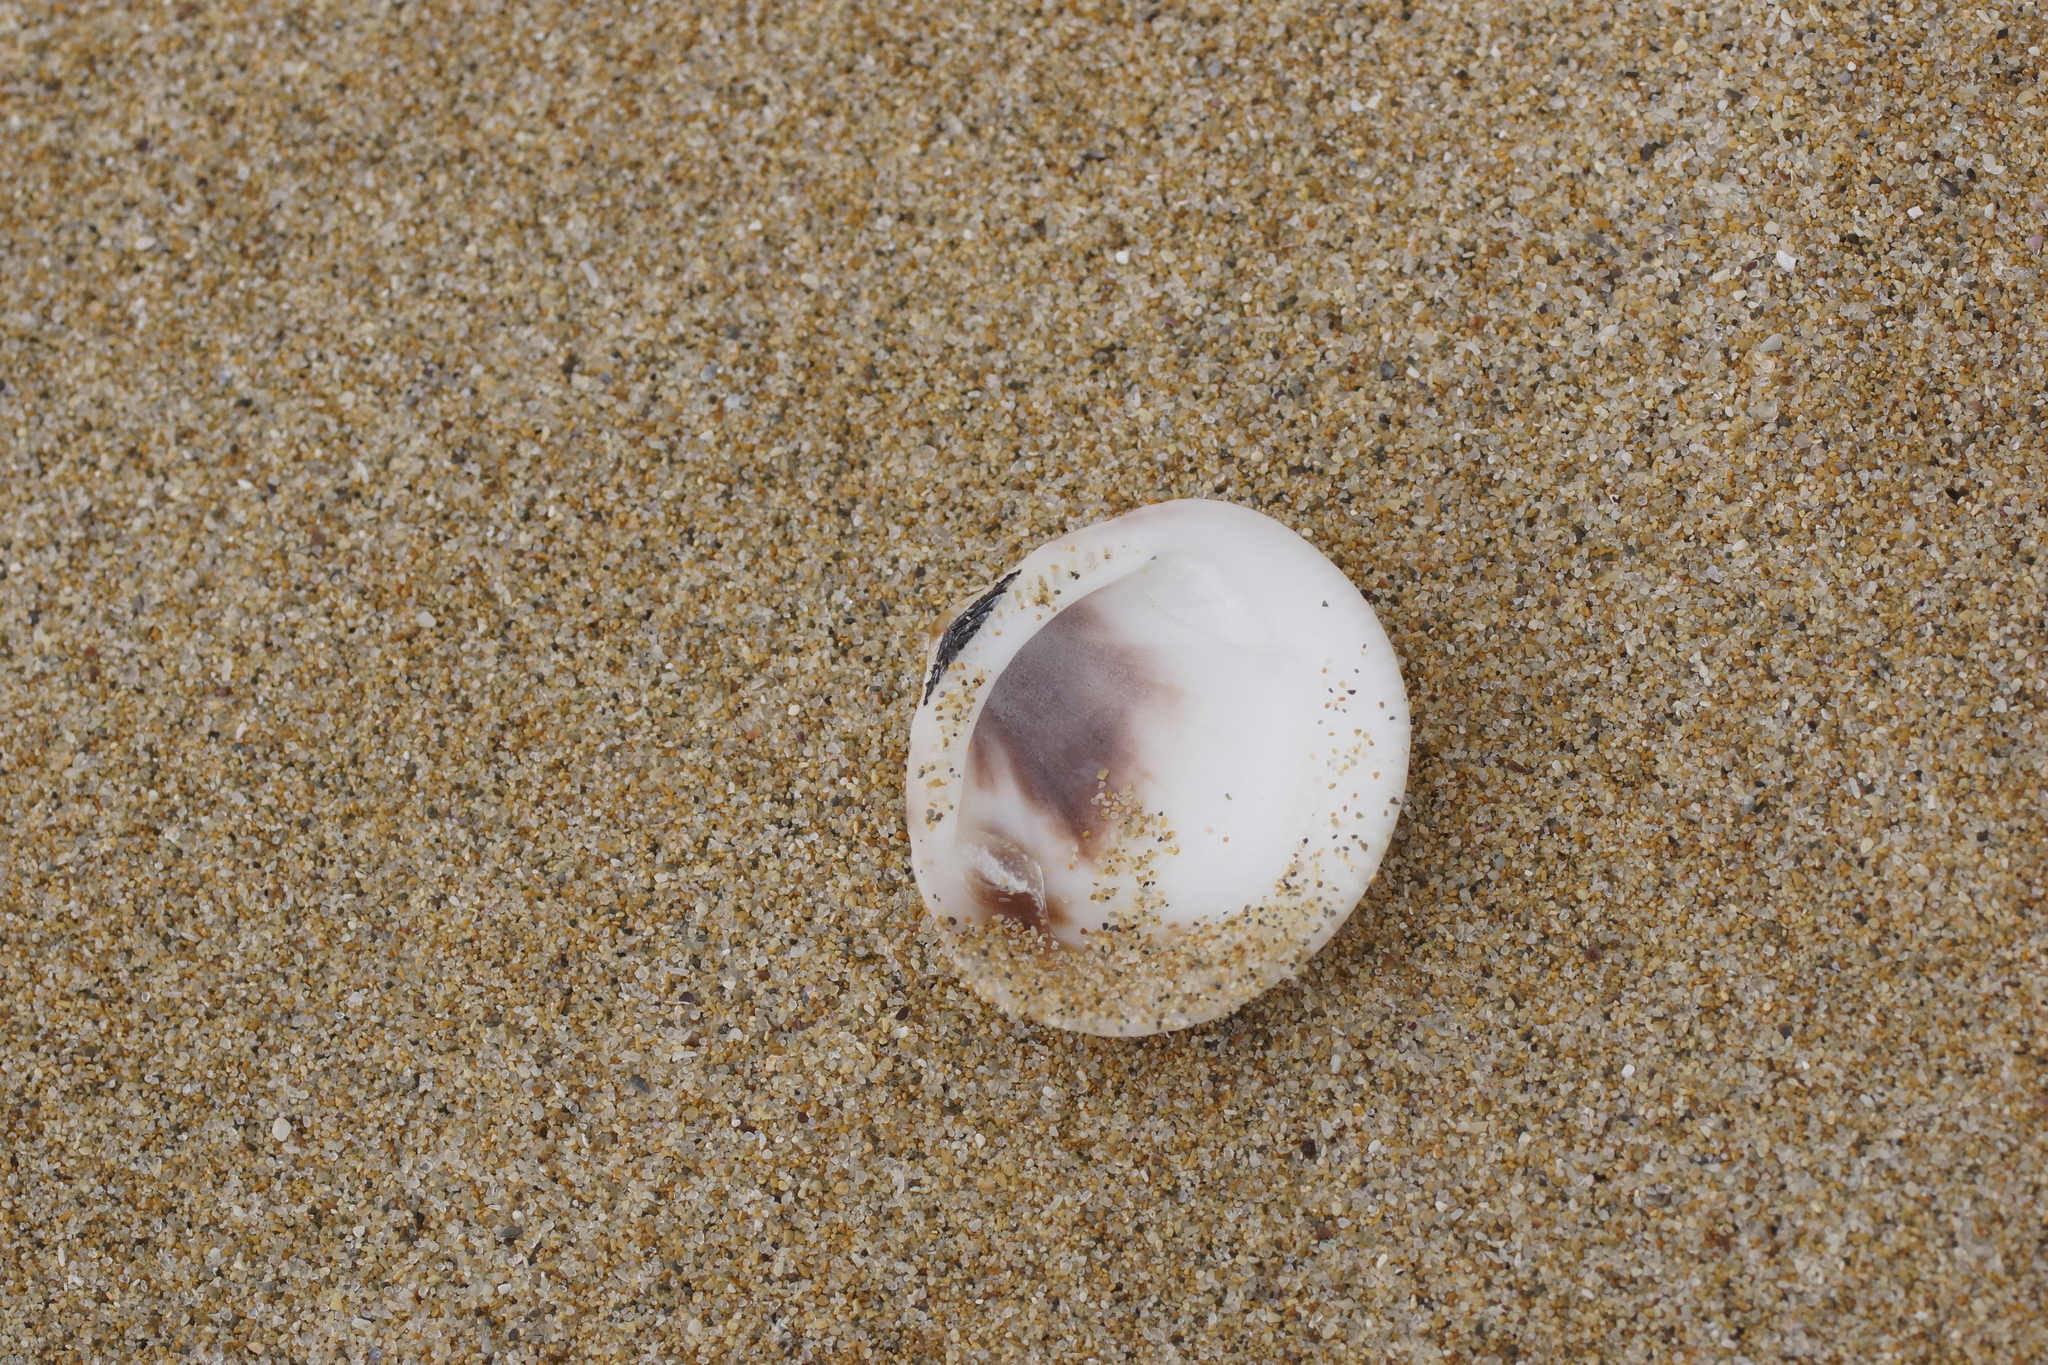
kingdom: Animalia
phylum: Mollusca
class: Bivalvia
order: Arcida
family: Glycymerididae
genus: Glycymeris
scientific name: Glycymeris grayana
